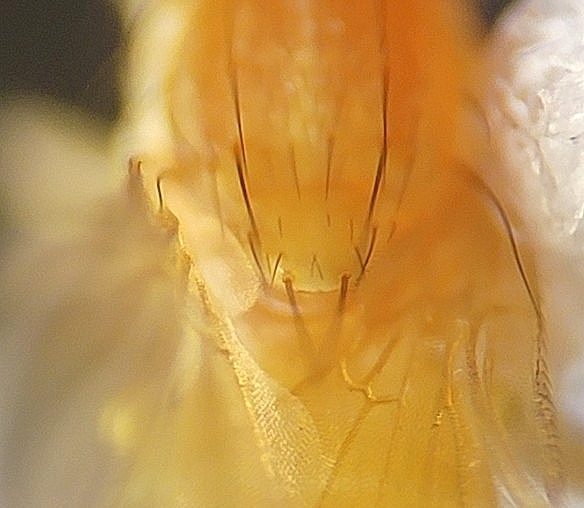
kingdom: Animalia
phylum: Arthropoda
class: Insecta
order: Diptera
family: Chyromyidae
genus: Chyromya
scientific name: Chyromya
